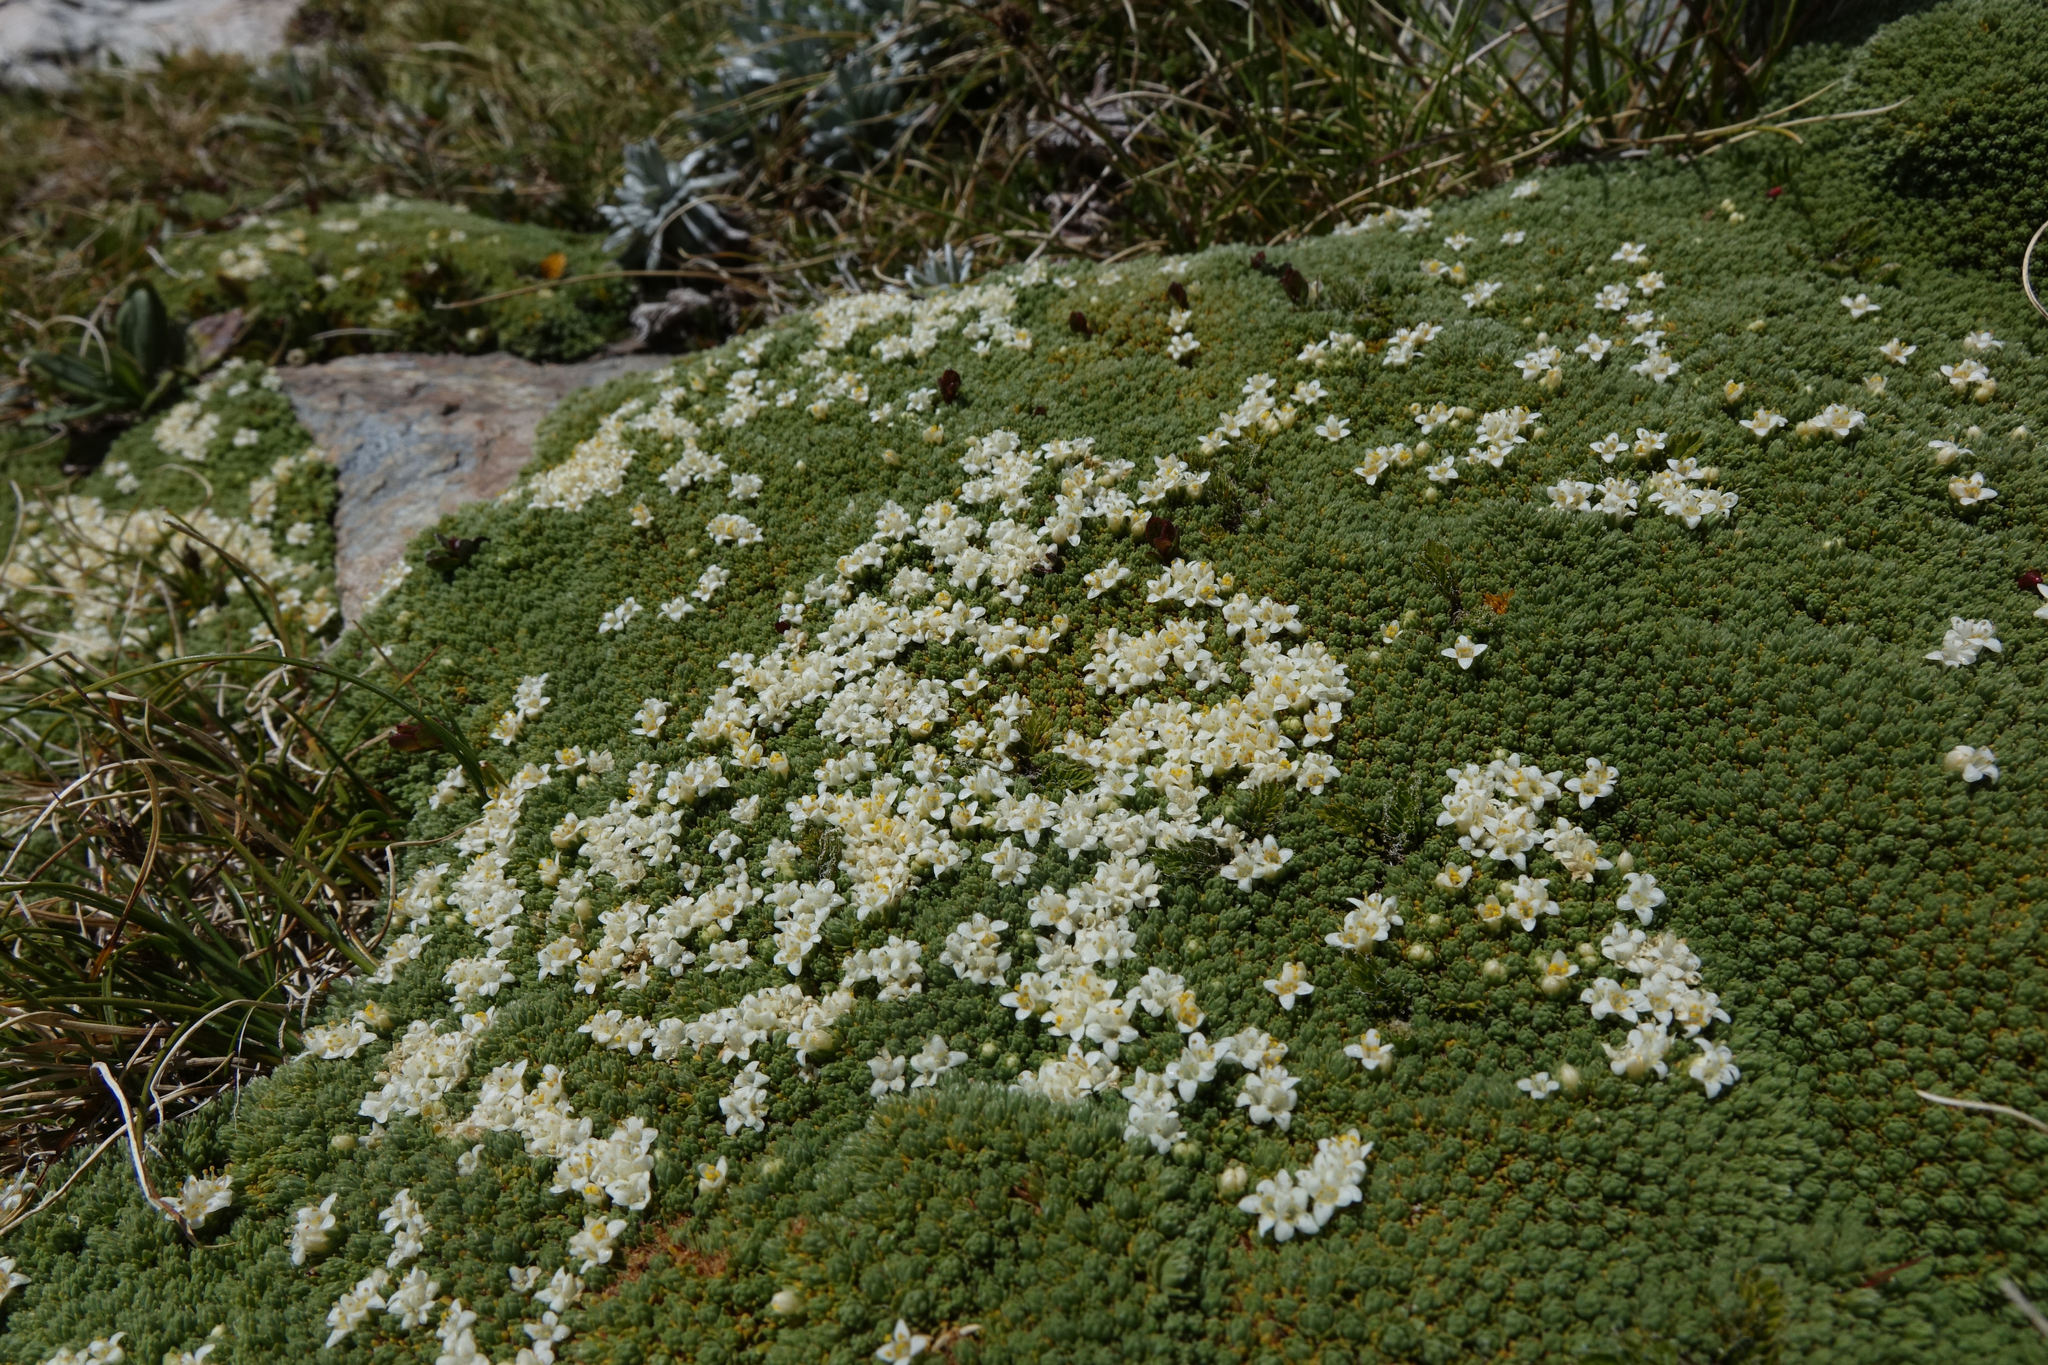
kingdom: Plantae
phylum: Tracheophyta
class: Magnoliopsida
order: Malvales
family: Thymelaeaceae
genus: Kelleria
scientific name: Kelleria croizatii
